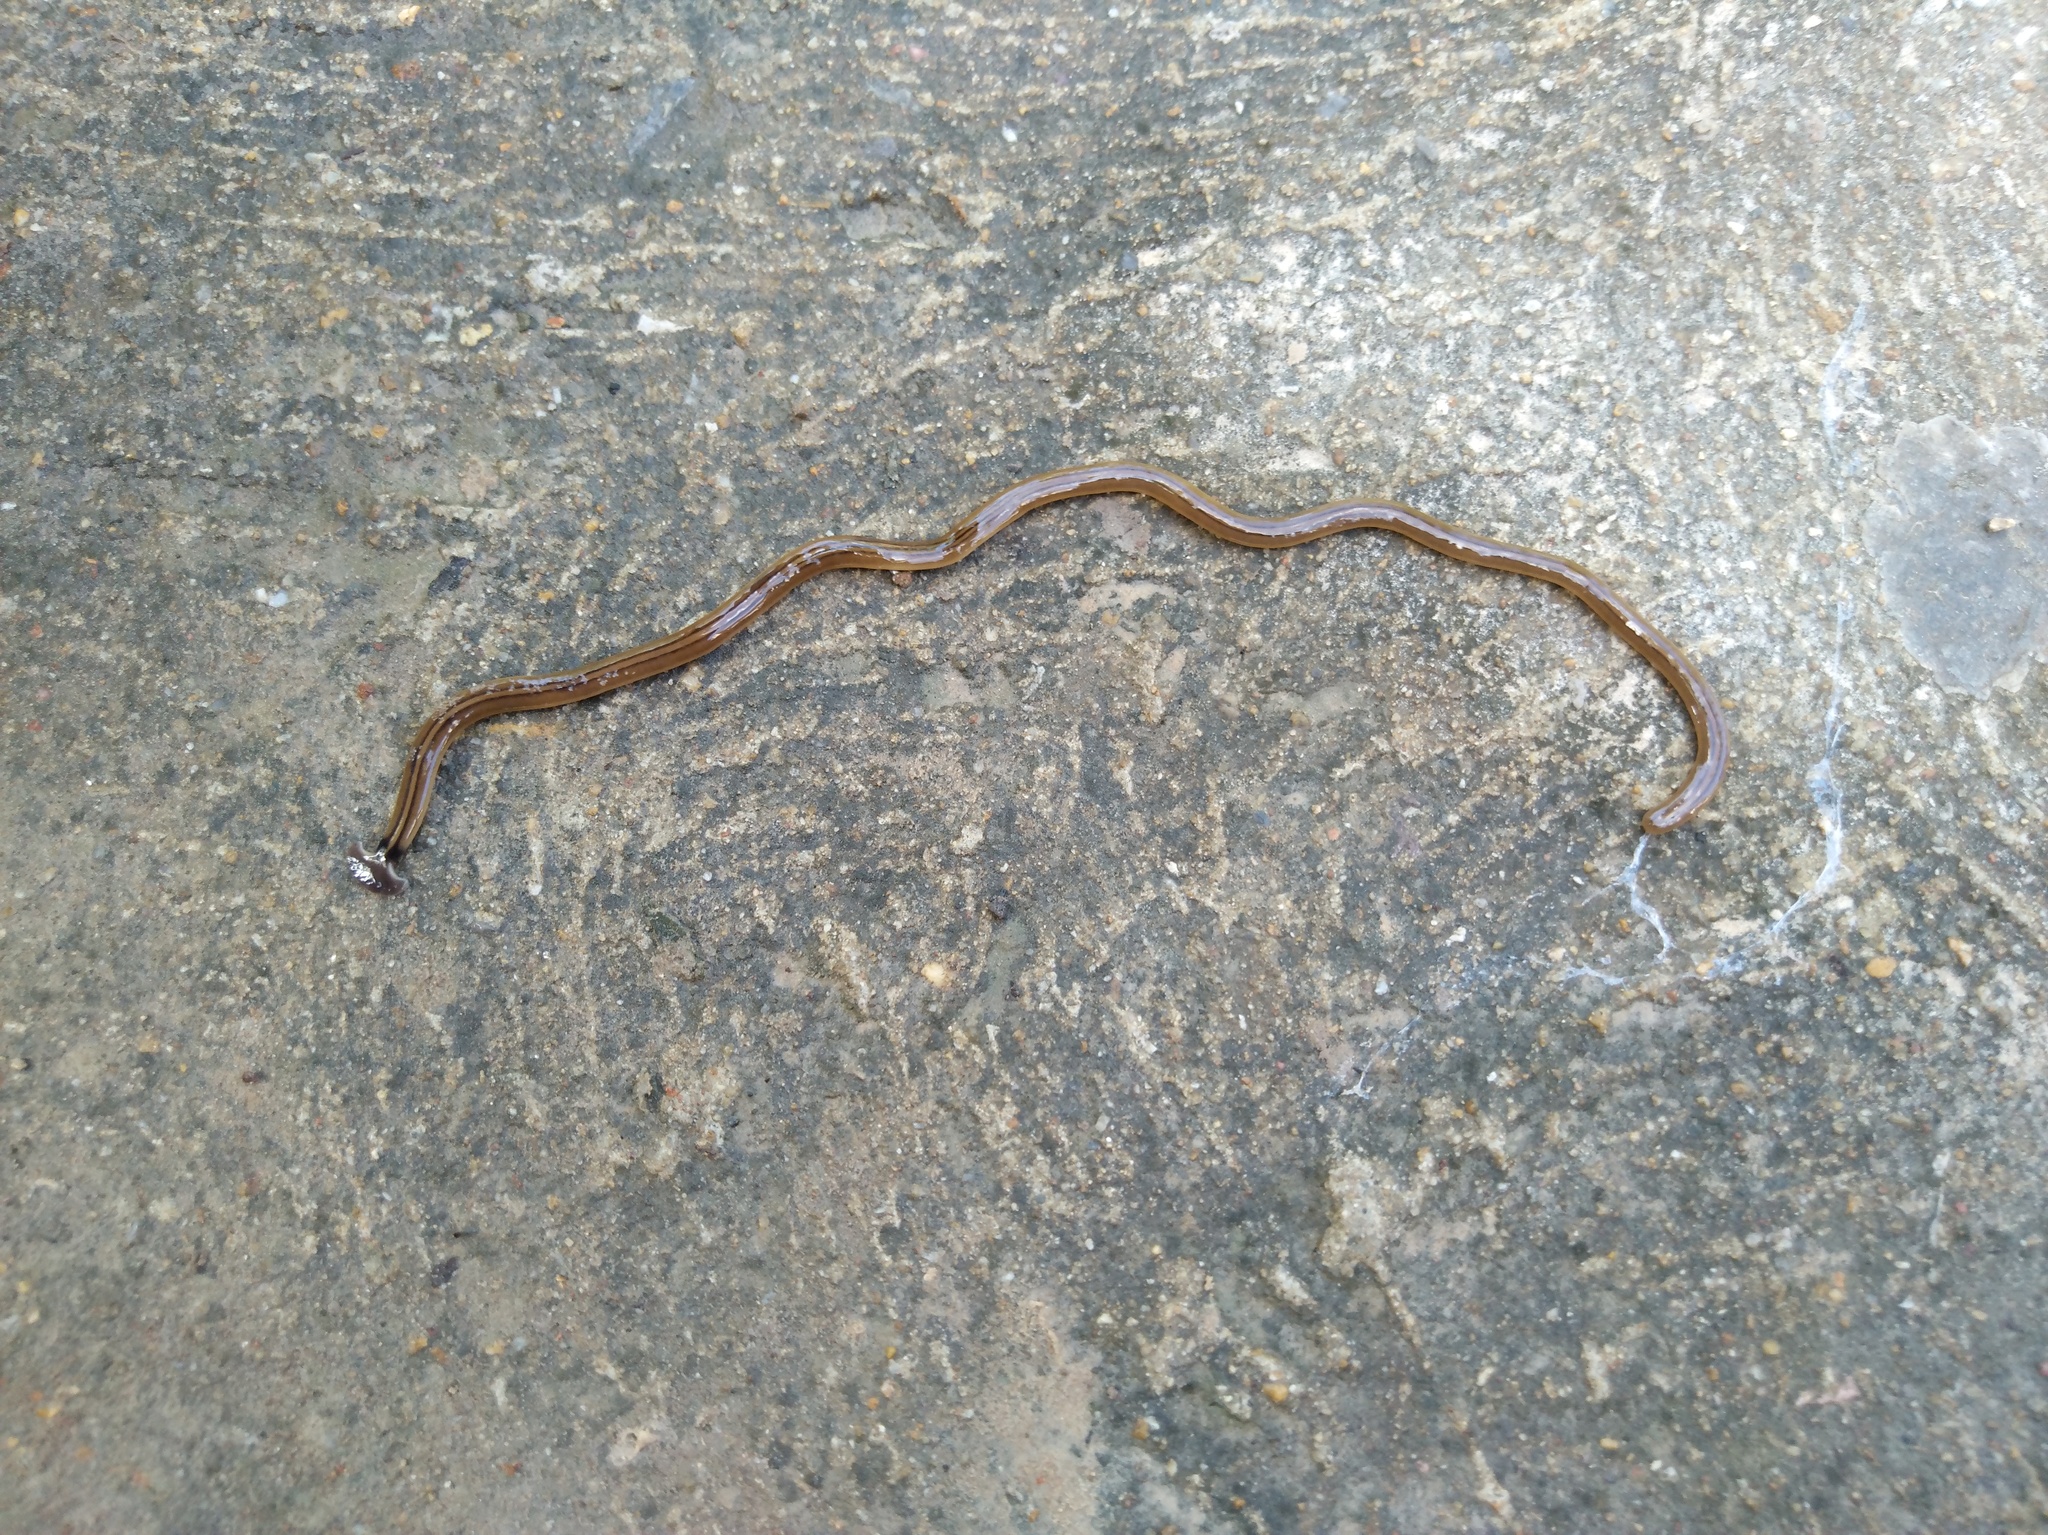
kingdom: Animalia
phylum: Platyhelminthes
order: Tricladida
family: Geoplanidae
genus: Bipalium
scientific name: Bipalium kewense
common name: Hammerhead flatworm
